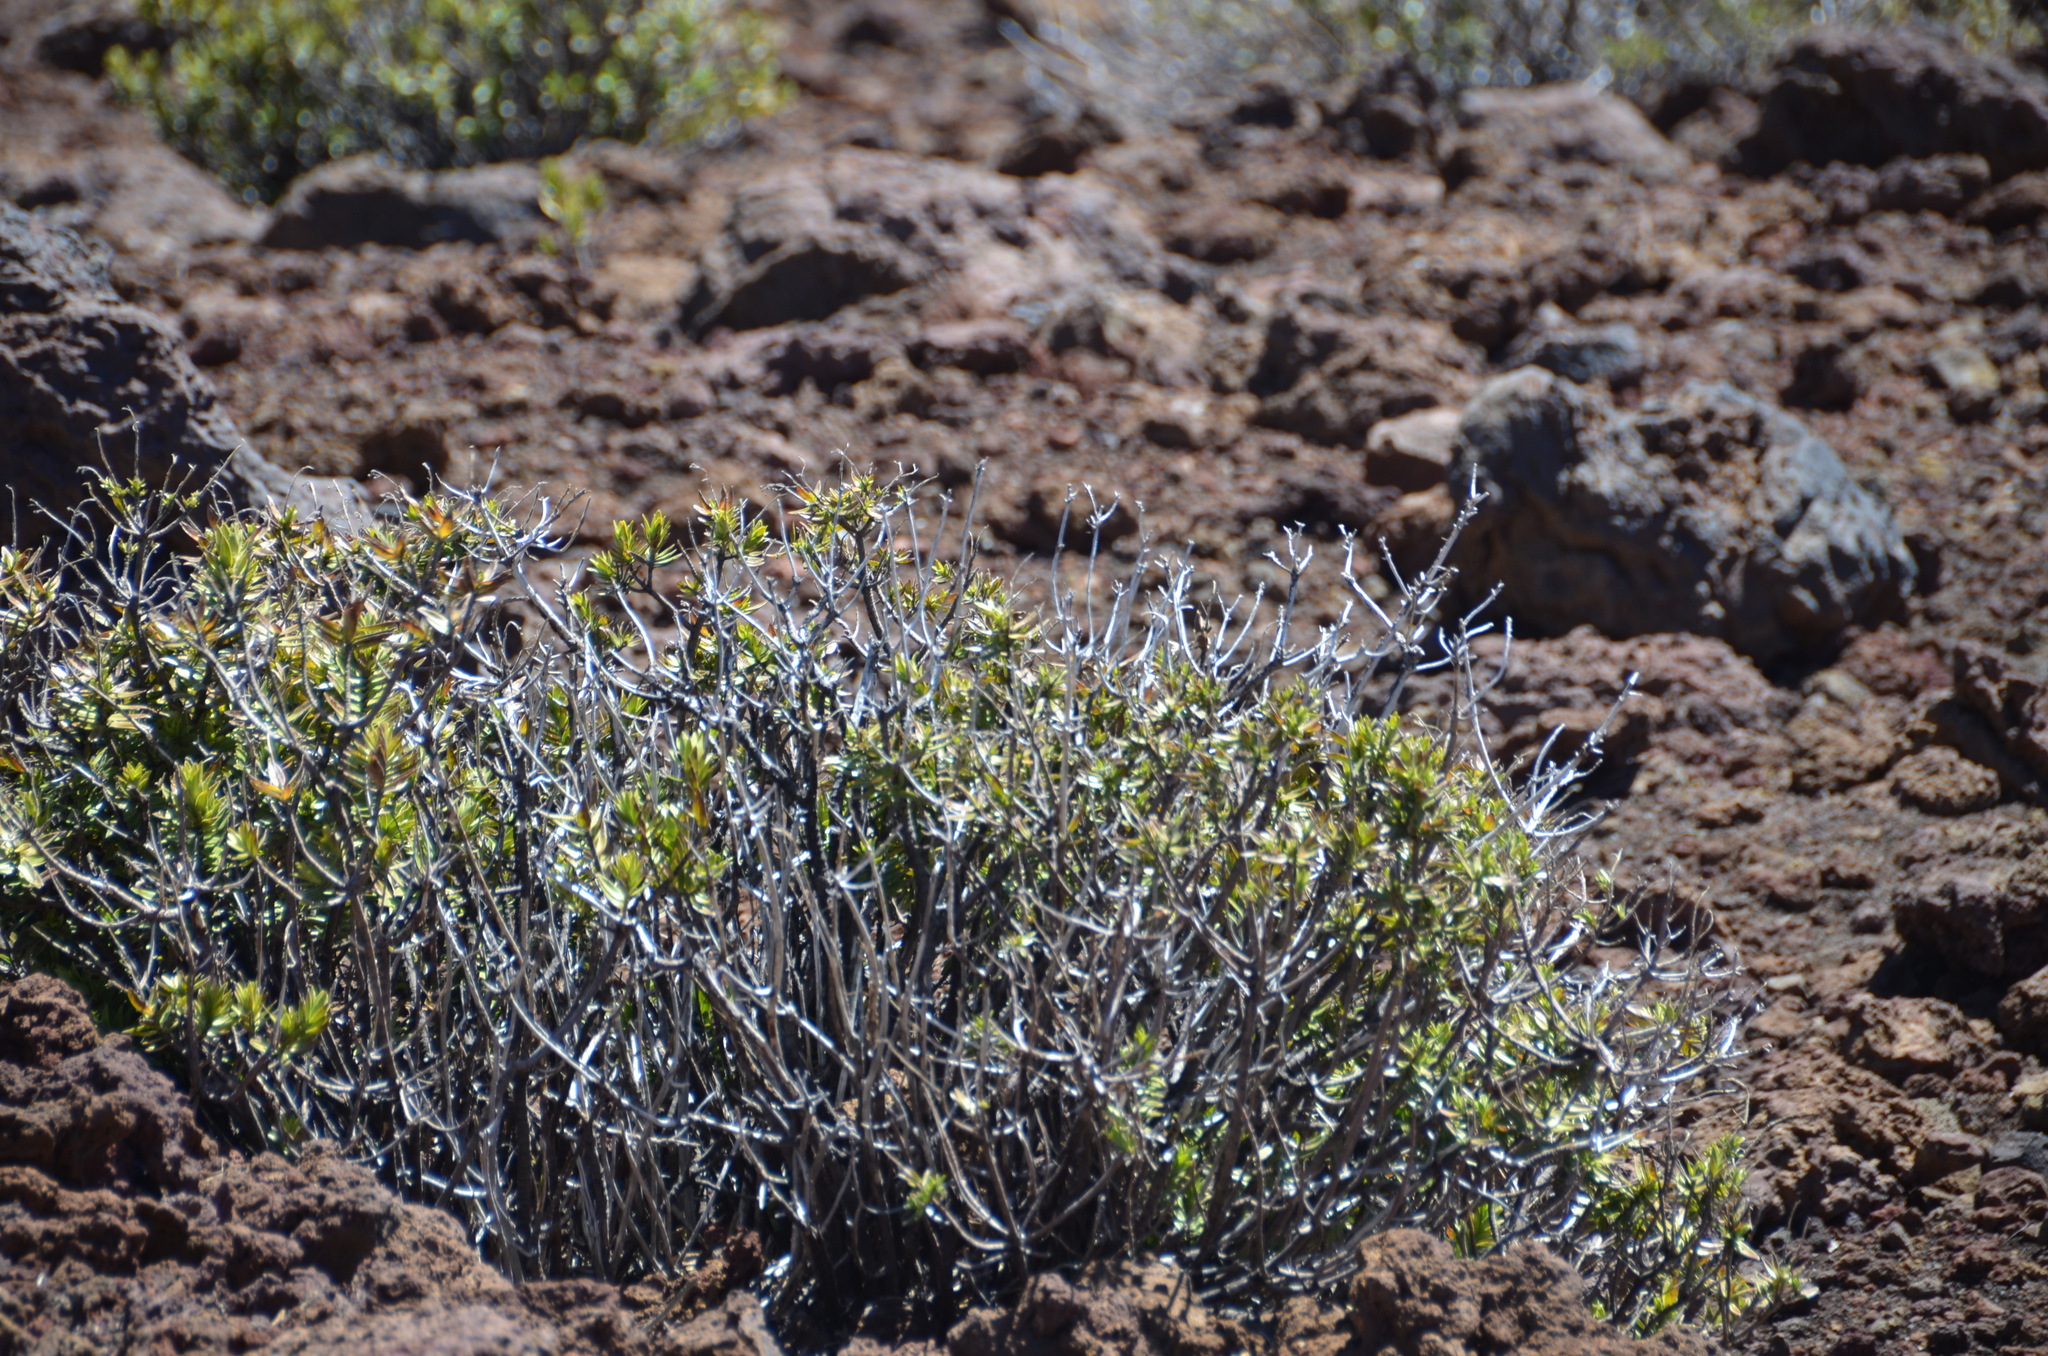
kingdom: Plantae
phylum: Tracheophyta
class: Magnoliopsida
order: Asterales
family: Asteraceae
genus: Dubautia
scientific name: Dubautia menziesii
